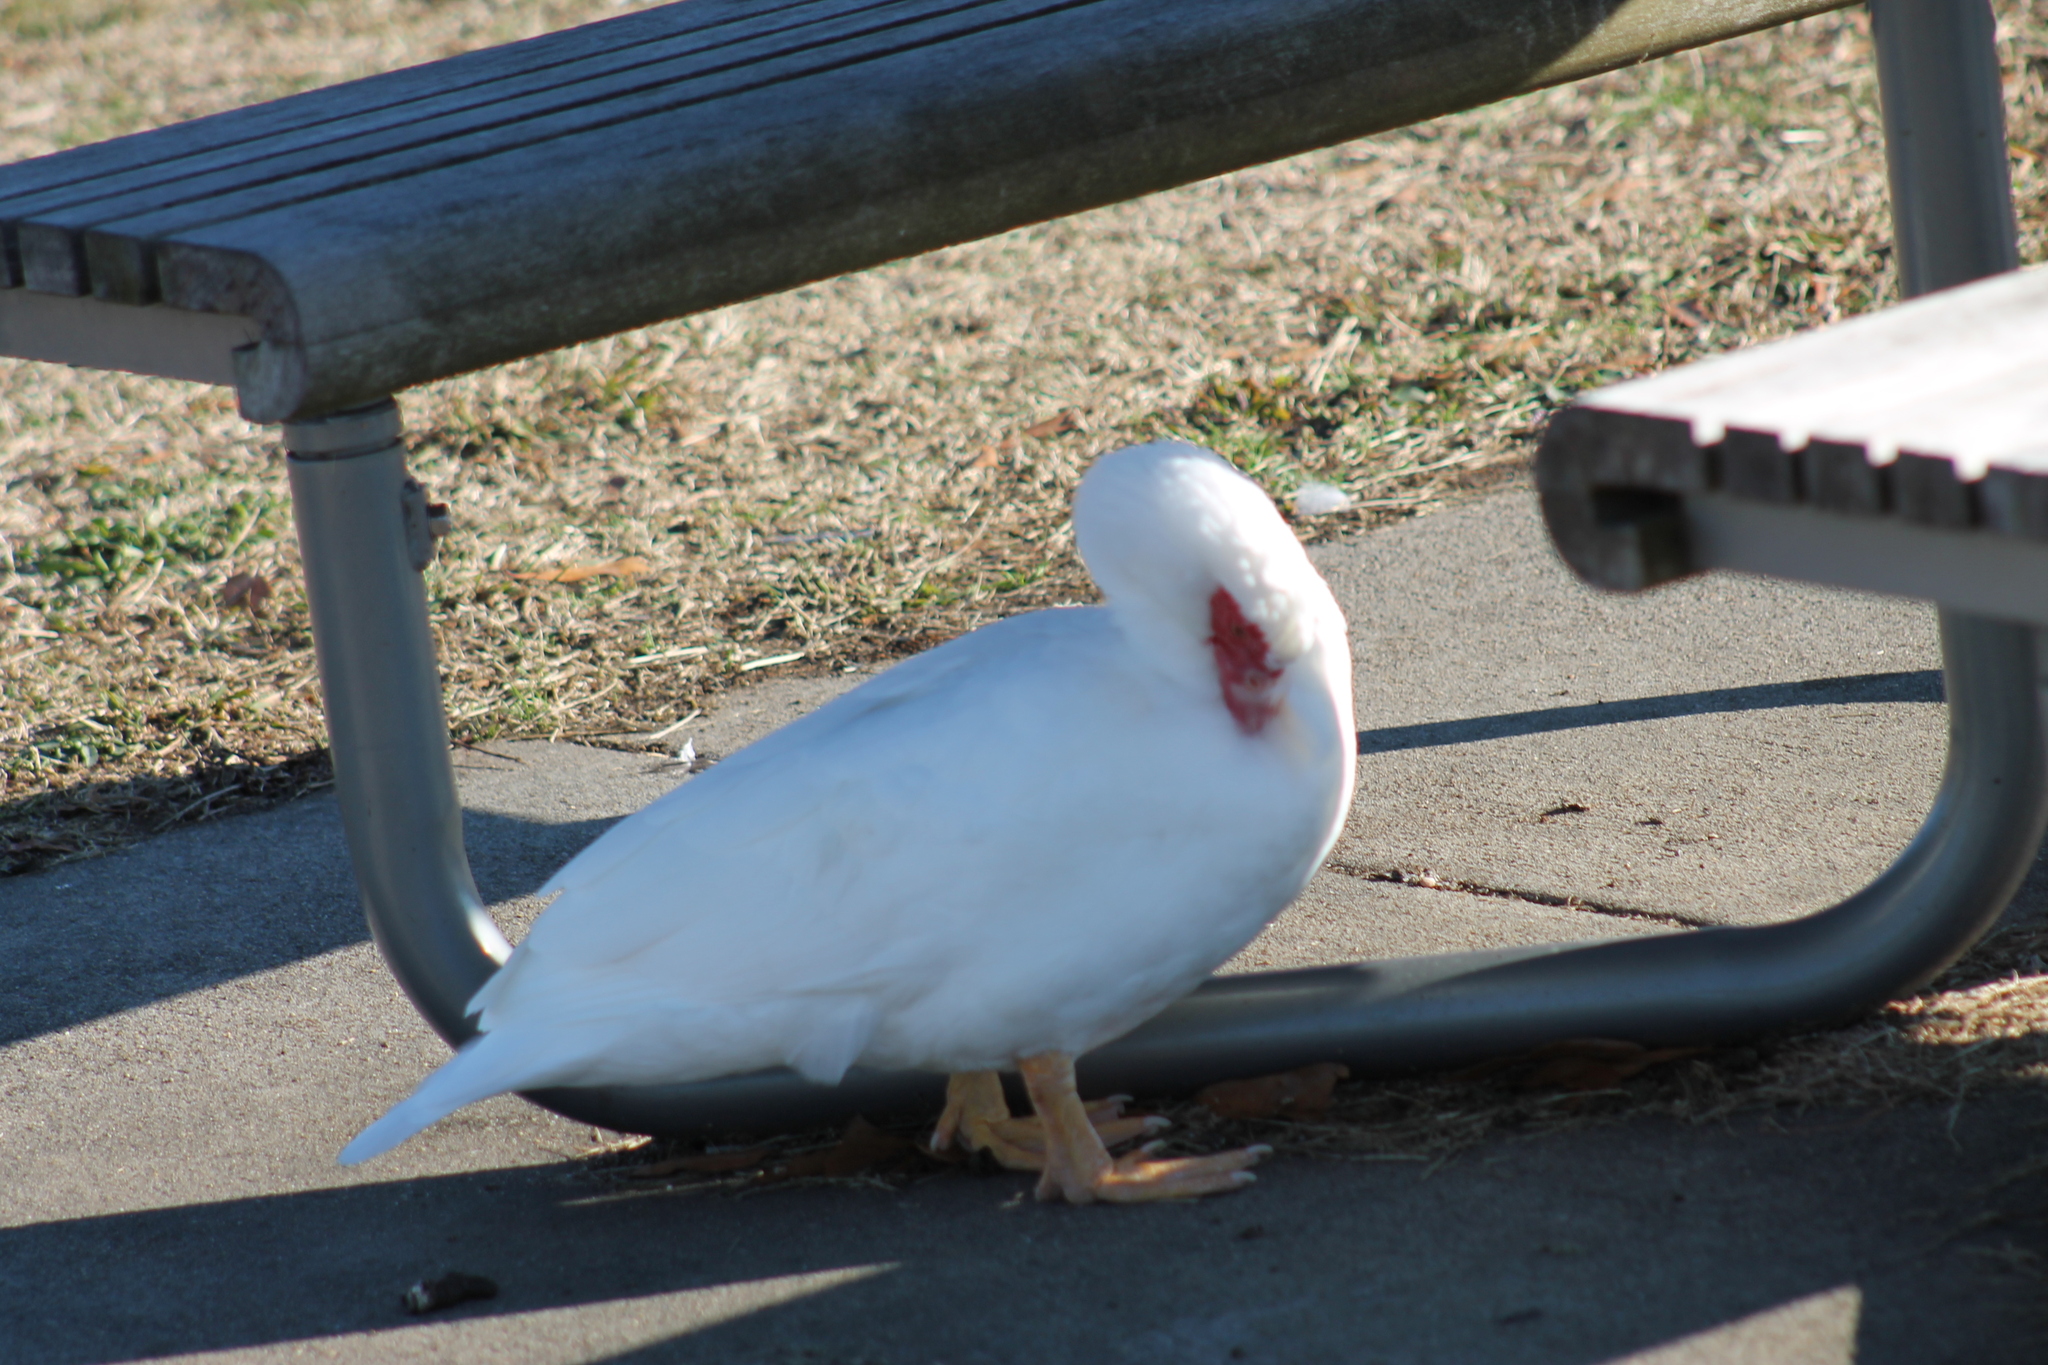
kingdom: Animalia
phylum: Chordata
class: Aves
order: Anseriformes
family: Anatidae
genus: Cairina
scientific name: Cairina moschata
